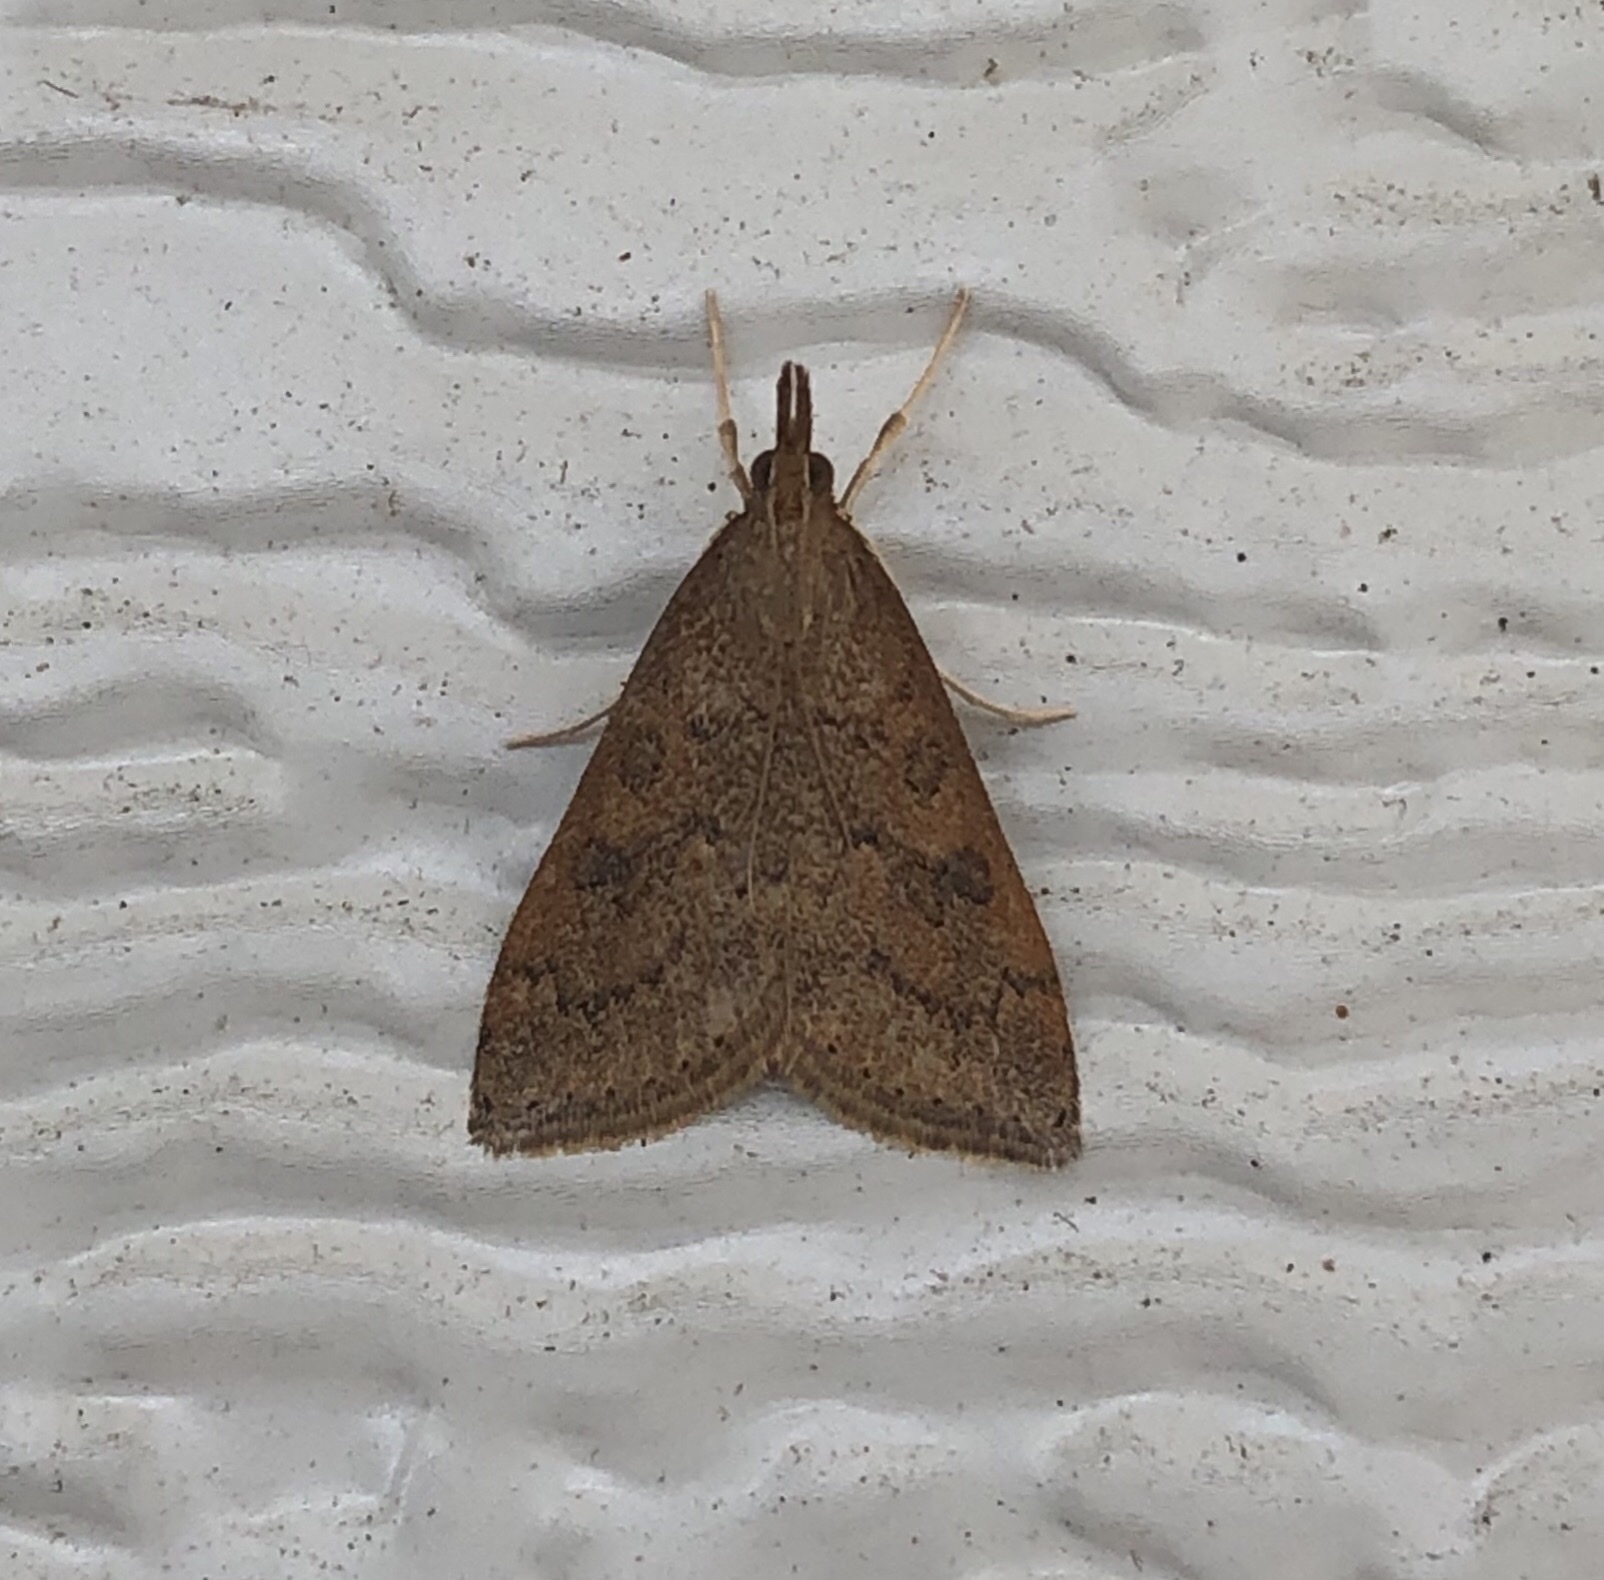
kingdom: Animalia
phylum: Arthropoda
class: Insecta
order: Lepidoptera
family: Crambidae
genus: Udea
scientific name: Udea rubigalis
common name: Celery leaftier moth
